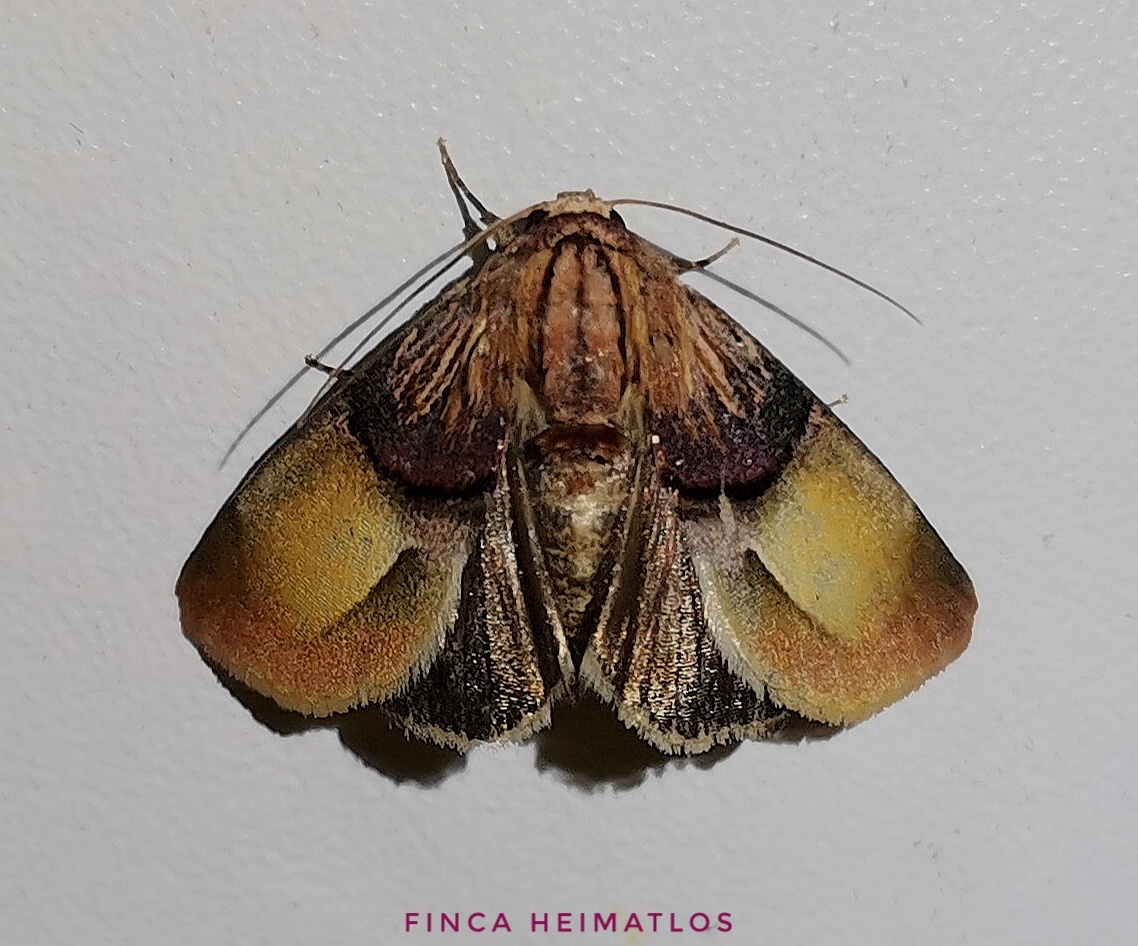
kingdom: Animalia
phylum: Arthropoda
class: Insecta
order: Lepidoptera
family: Noctuidae
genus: Chalcoecia
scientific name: Chalcoecia patricia
